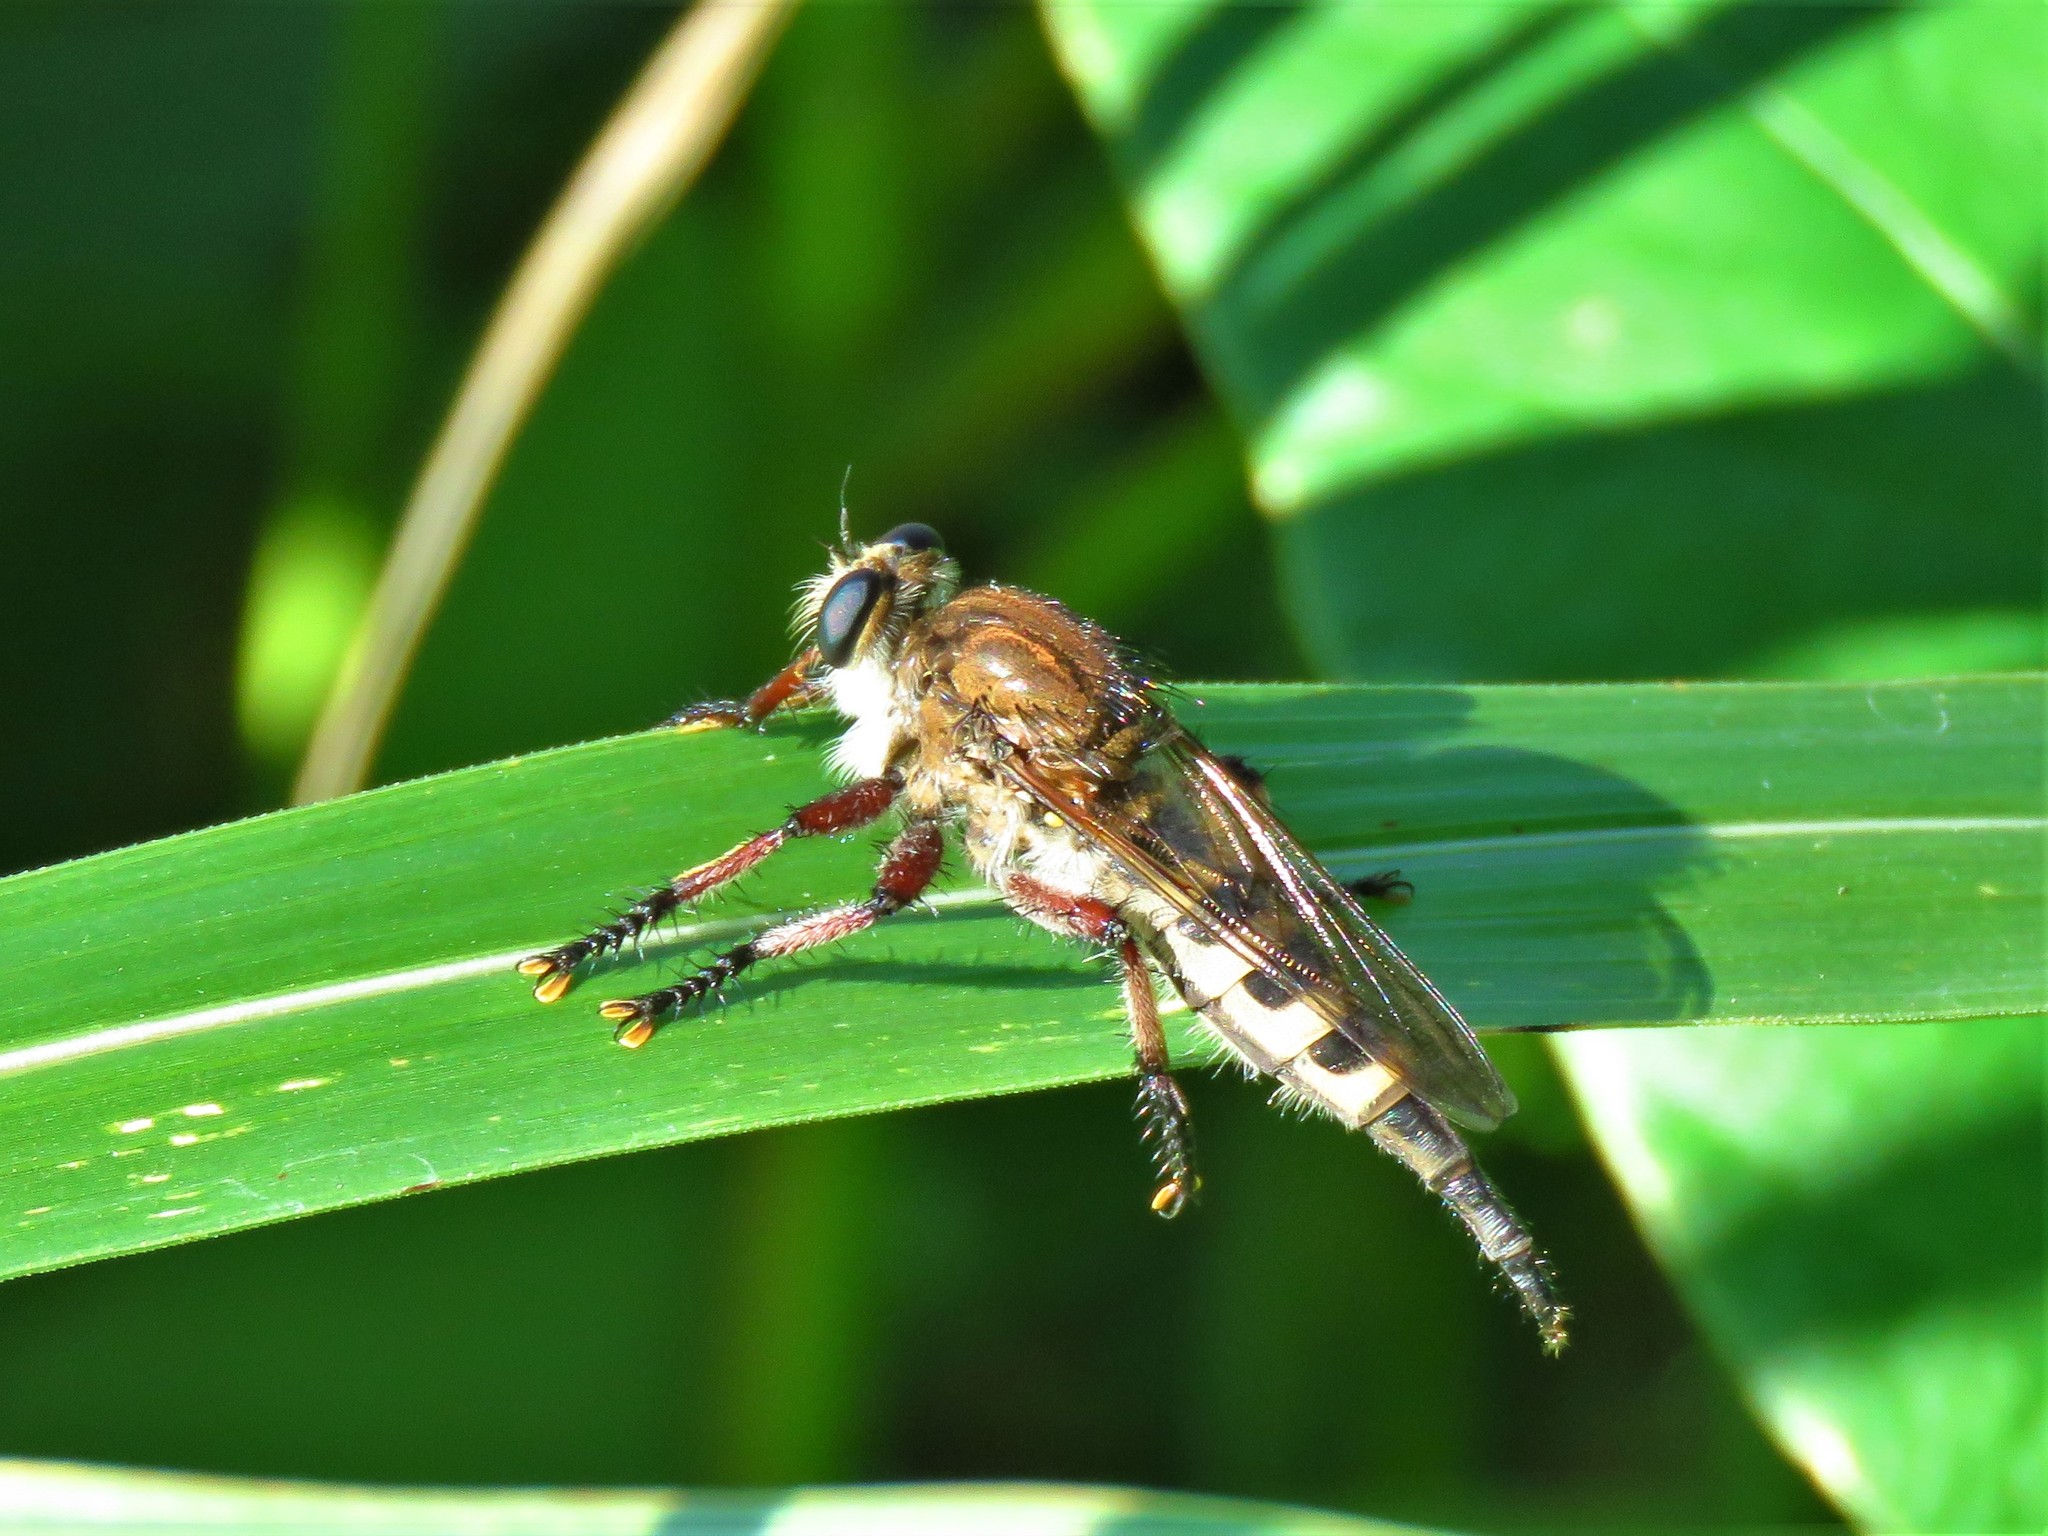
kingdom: Animalia
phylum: Arthropoda
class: Insecta
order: Diptera
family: Asilidae
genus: Promachus
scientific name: Promachus hinei
